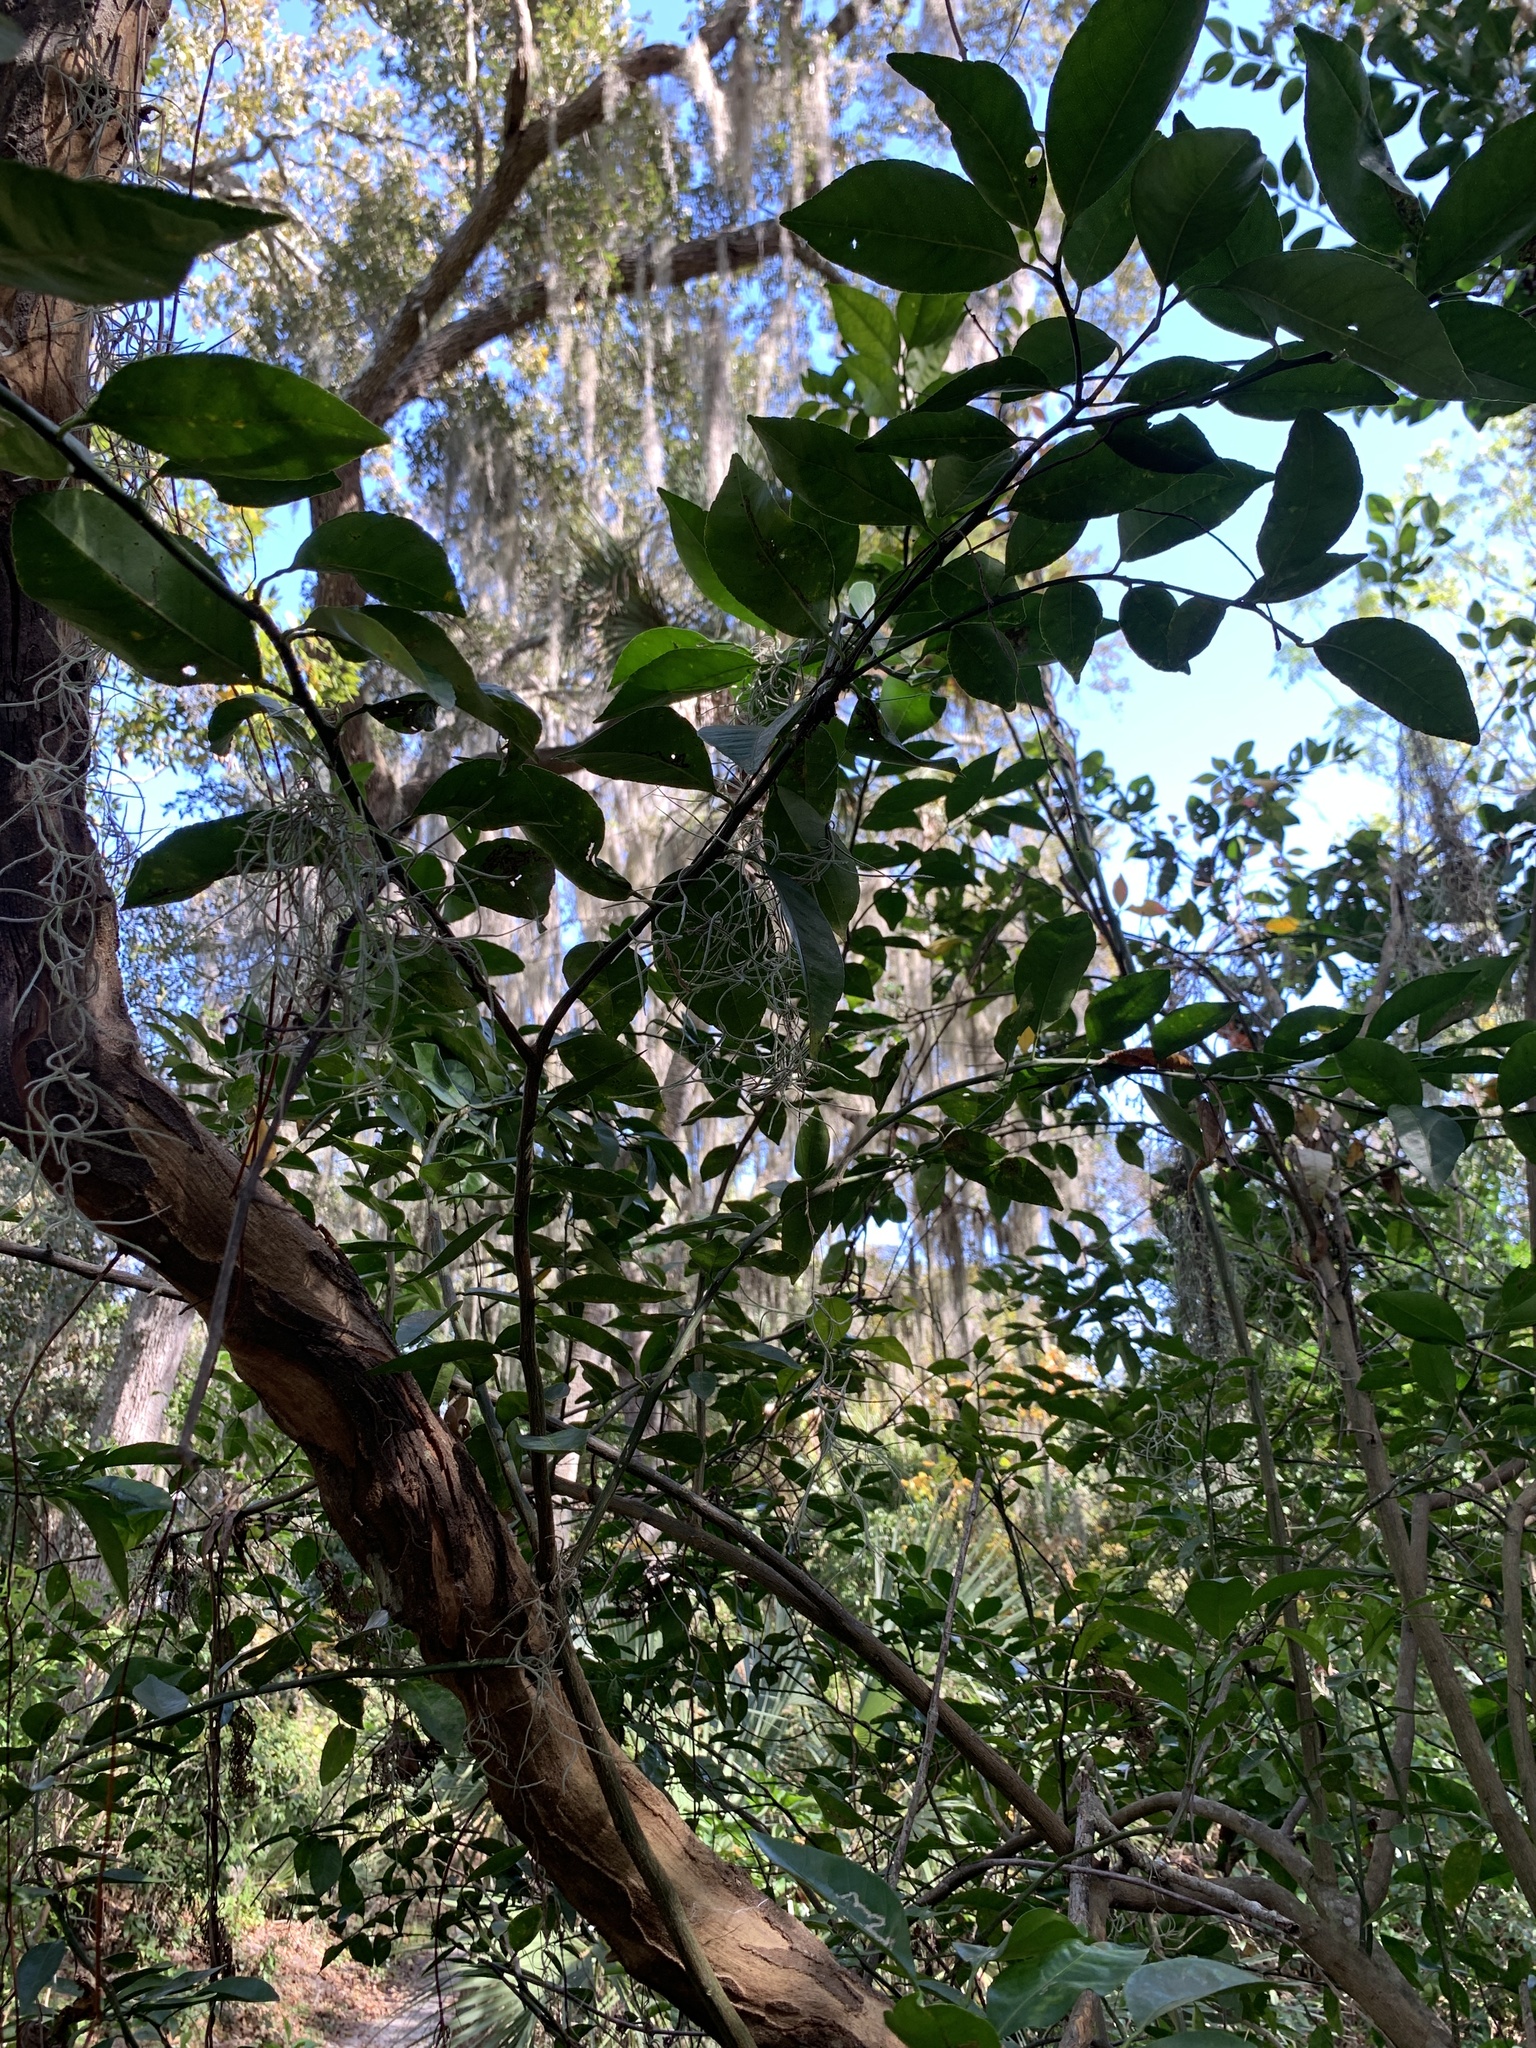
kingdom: Plantae
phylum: Tracheophyta
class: Magnoliopsida
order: Sapindales
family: Rutaceae
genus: Citrus
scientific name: Citrus aurantium
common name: Sour orange
